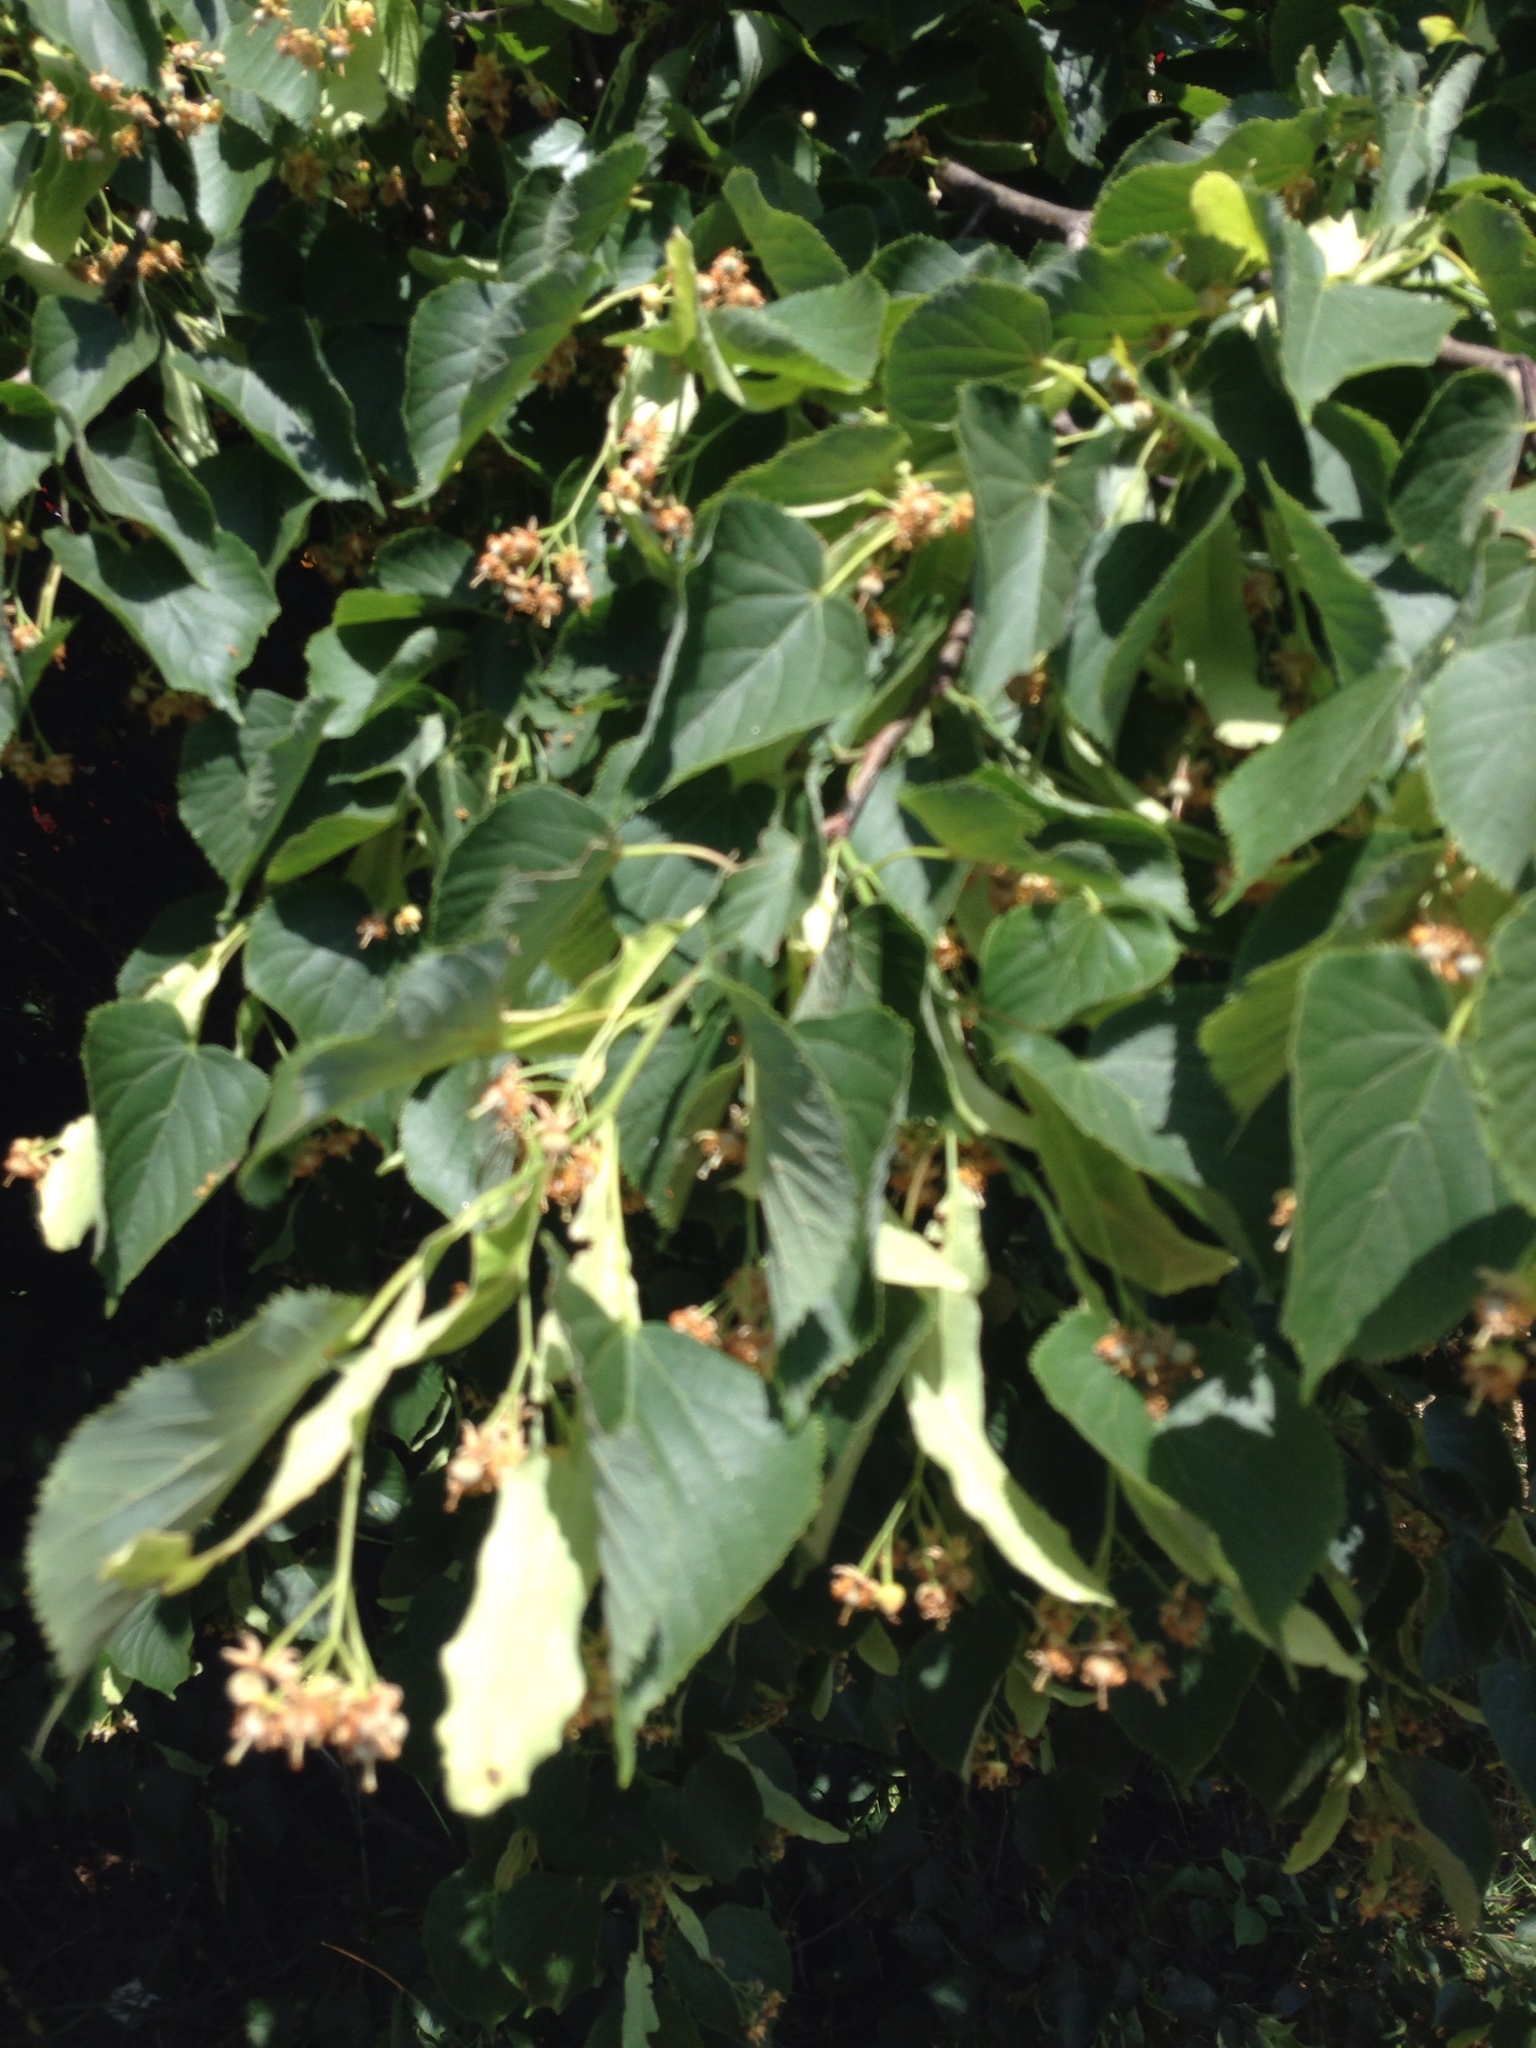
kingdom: Plantae
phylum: Tracheophyta
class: Magnoliopsida
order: Malvales
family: Malvaceae
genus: Tilia
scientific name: Tilia cordata
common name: Small-leaved lime
